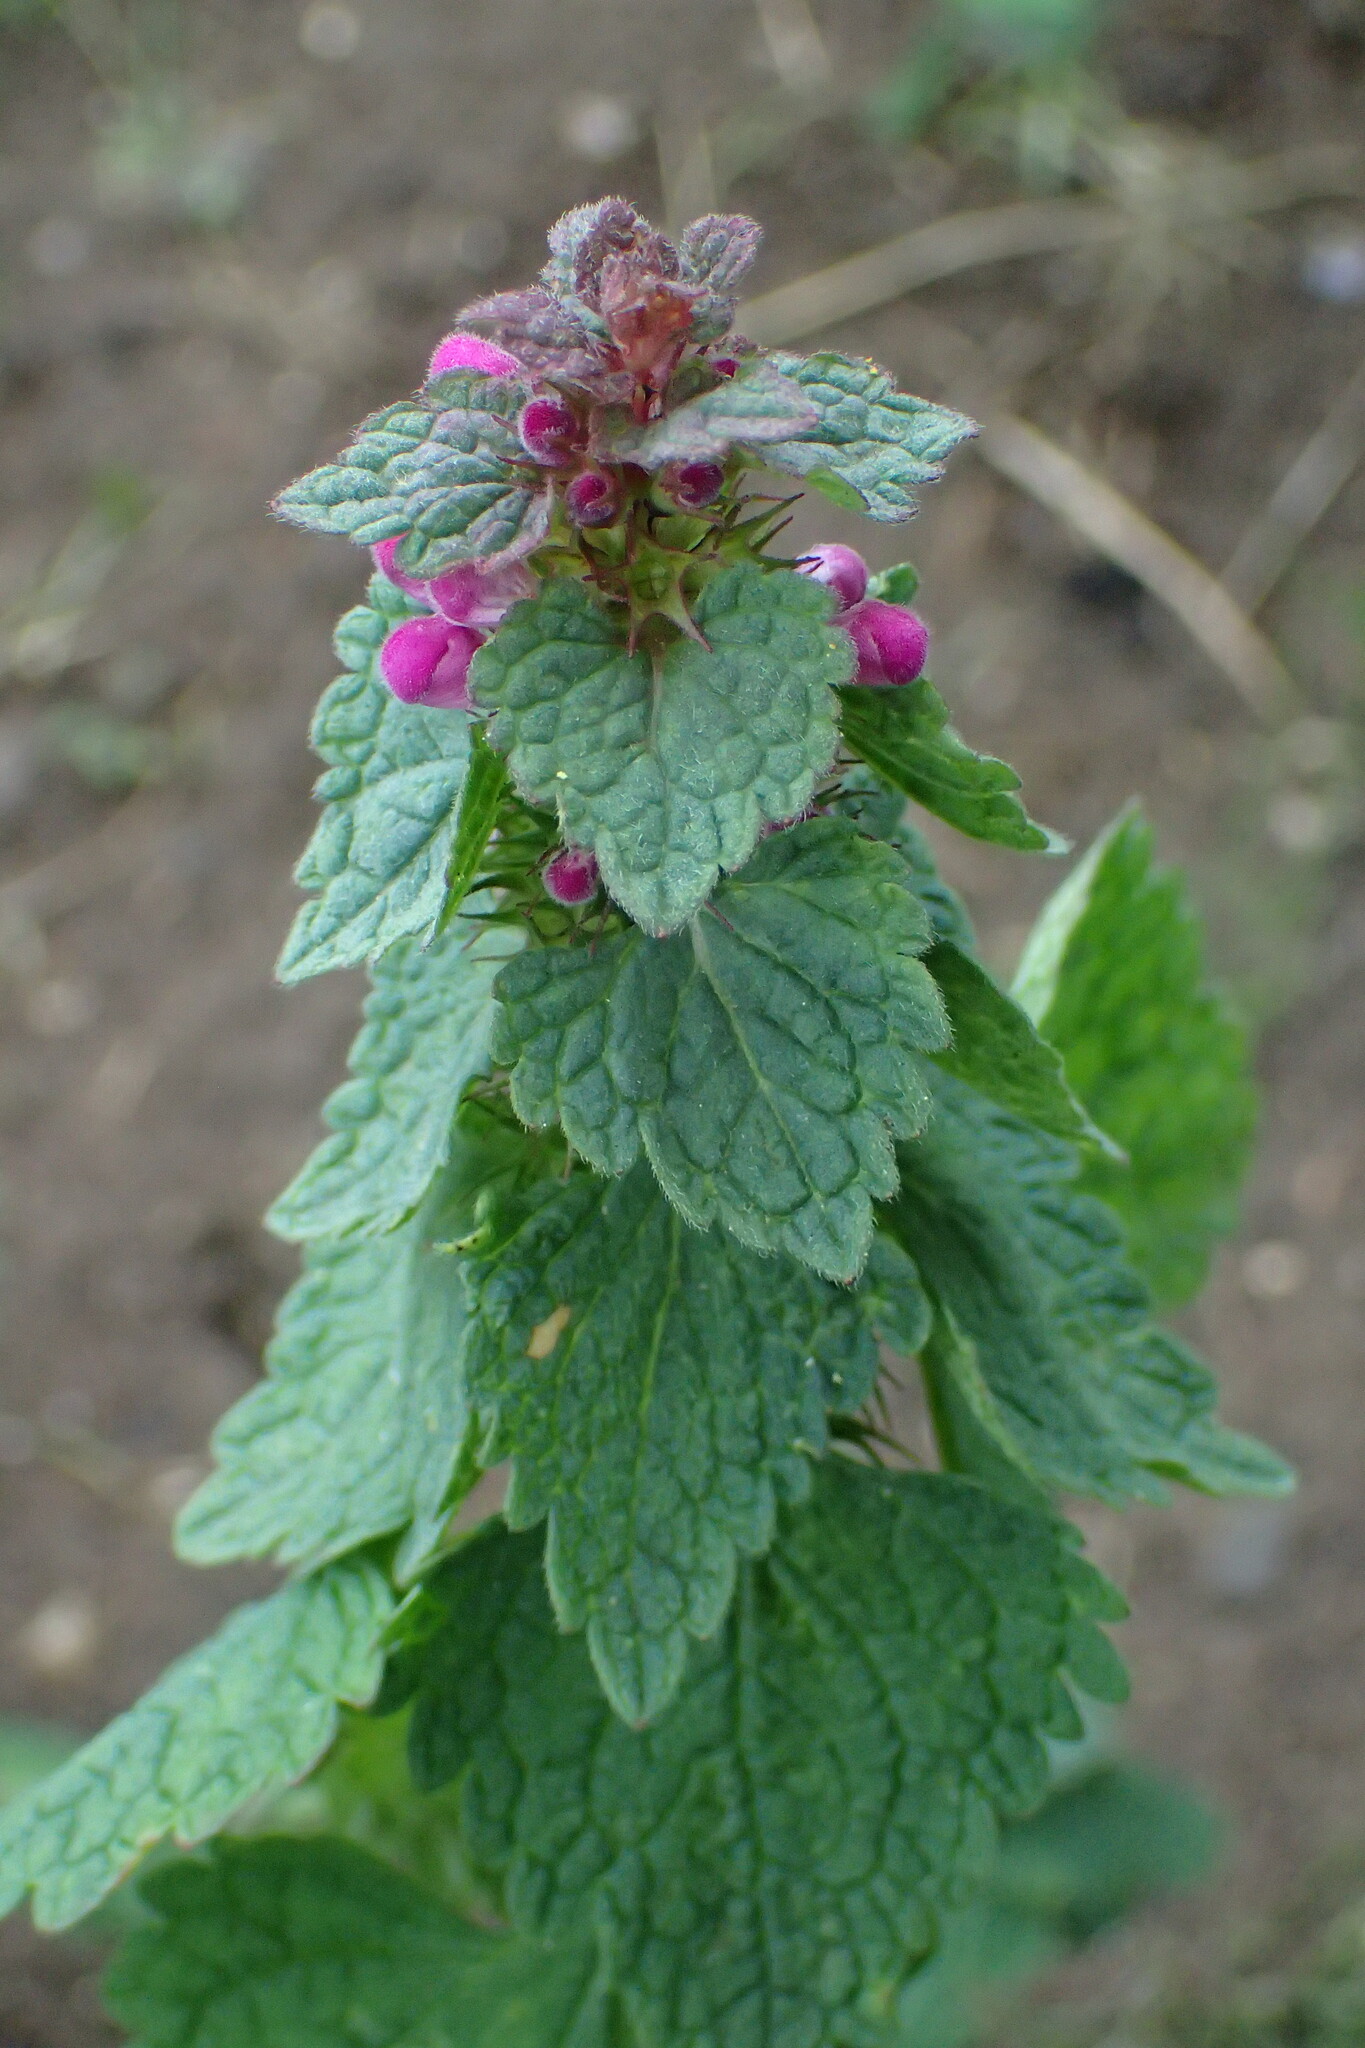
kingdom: Plantae
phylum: Tracheophyta
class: Magnoliopsida
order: Lamiales
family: Lamiaceae
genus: Lamium
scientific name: Lamium purpureum
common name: Red dead-nettle
